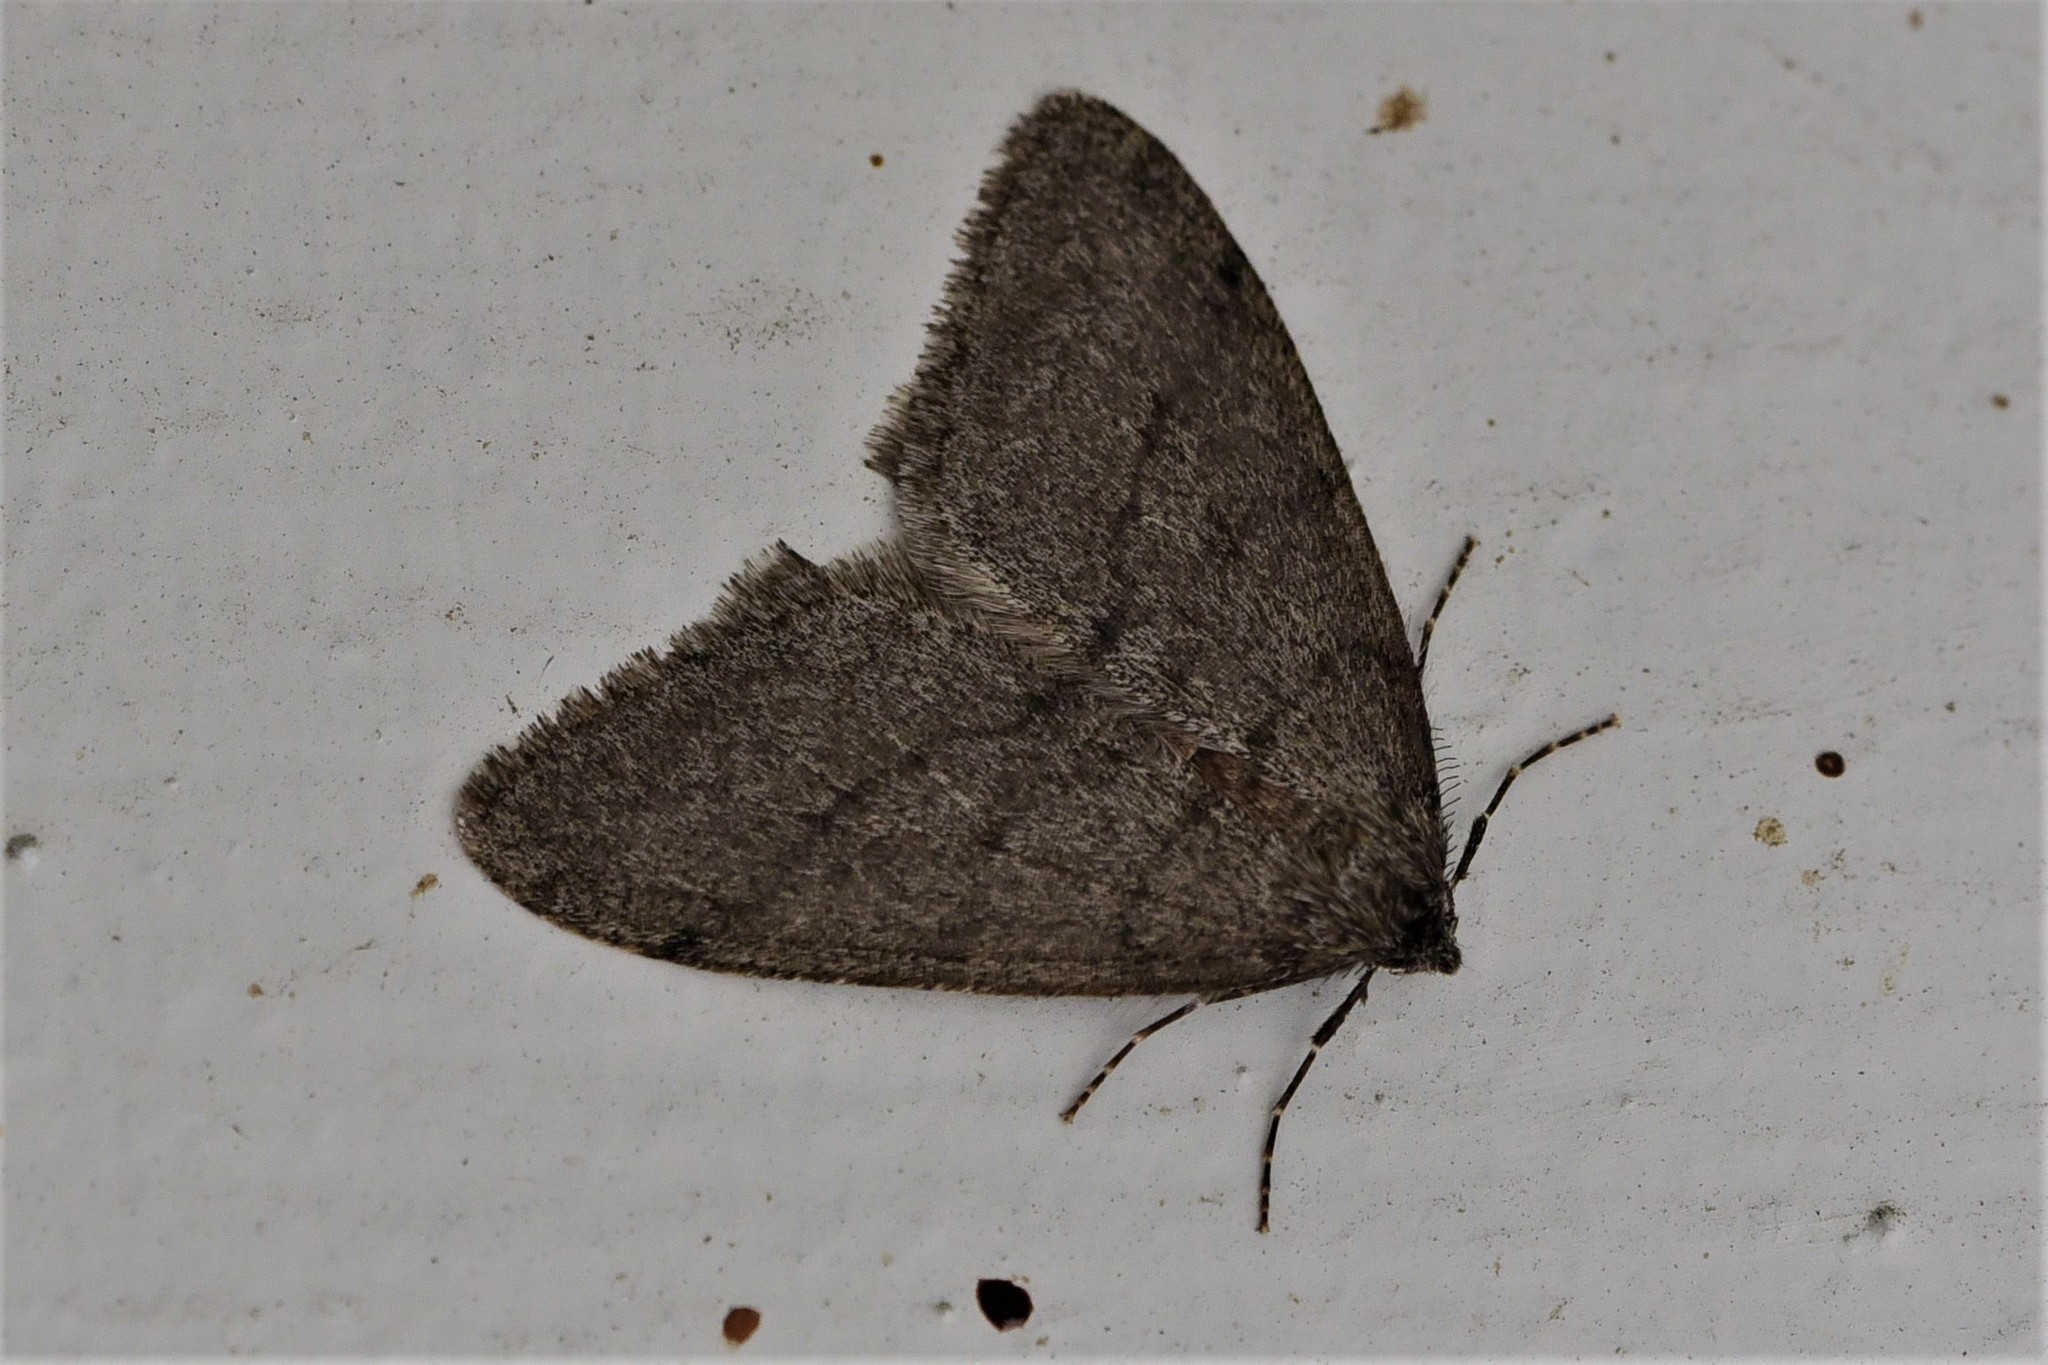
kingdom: Animalia
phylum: Arthropoda
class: Insecta
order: Lepidoptera
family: Geometridae
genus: Phigalia
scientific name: Phigalia plumogeraria
